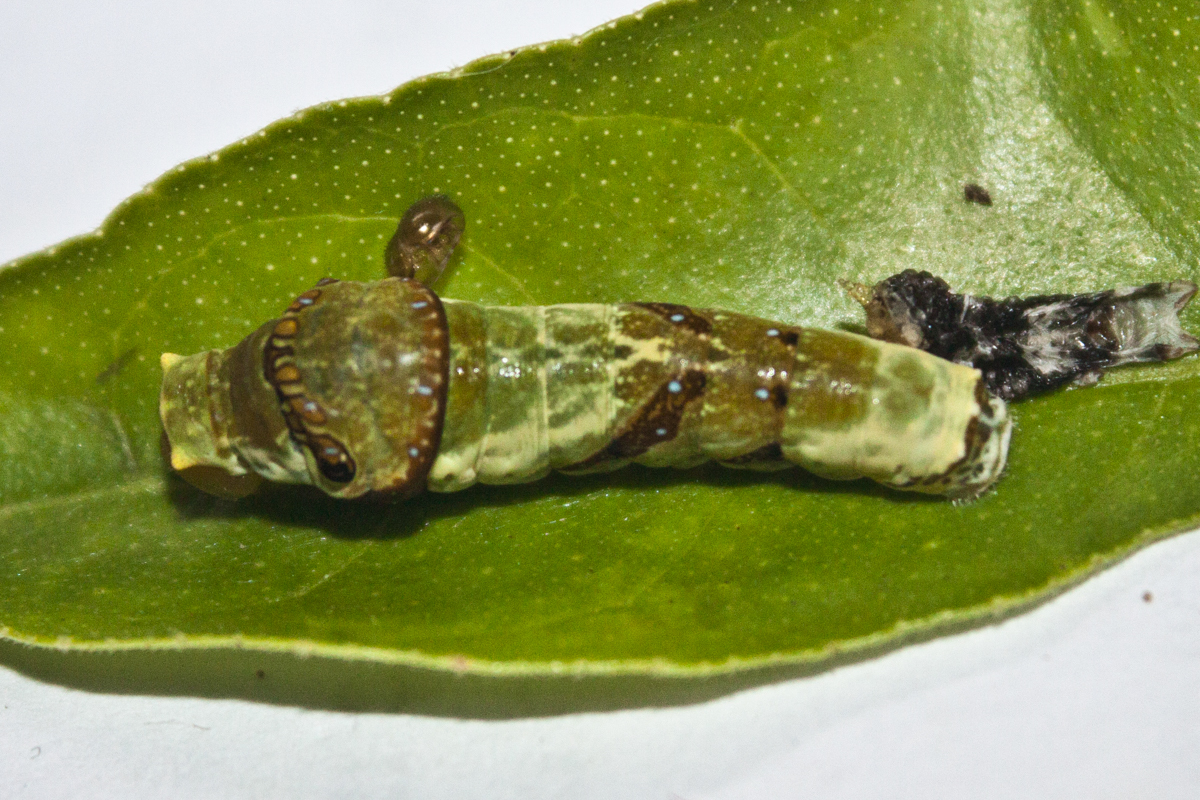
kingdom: Animalia
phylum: Arthropoda
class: Insecta
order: Lepidoptera
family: Papilionidae
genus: Papilio
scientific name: Papilio polytes
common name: Common mormon
